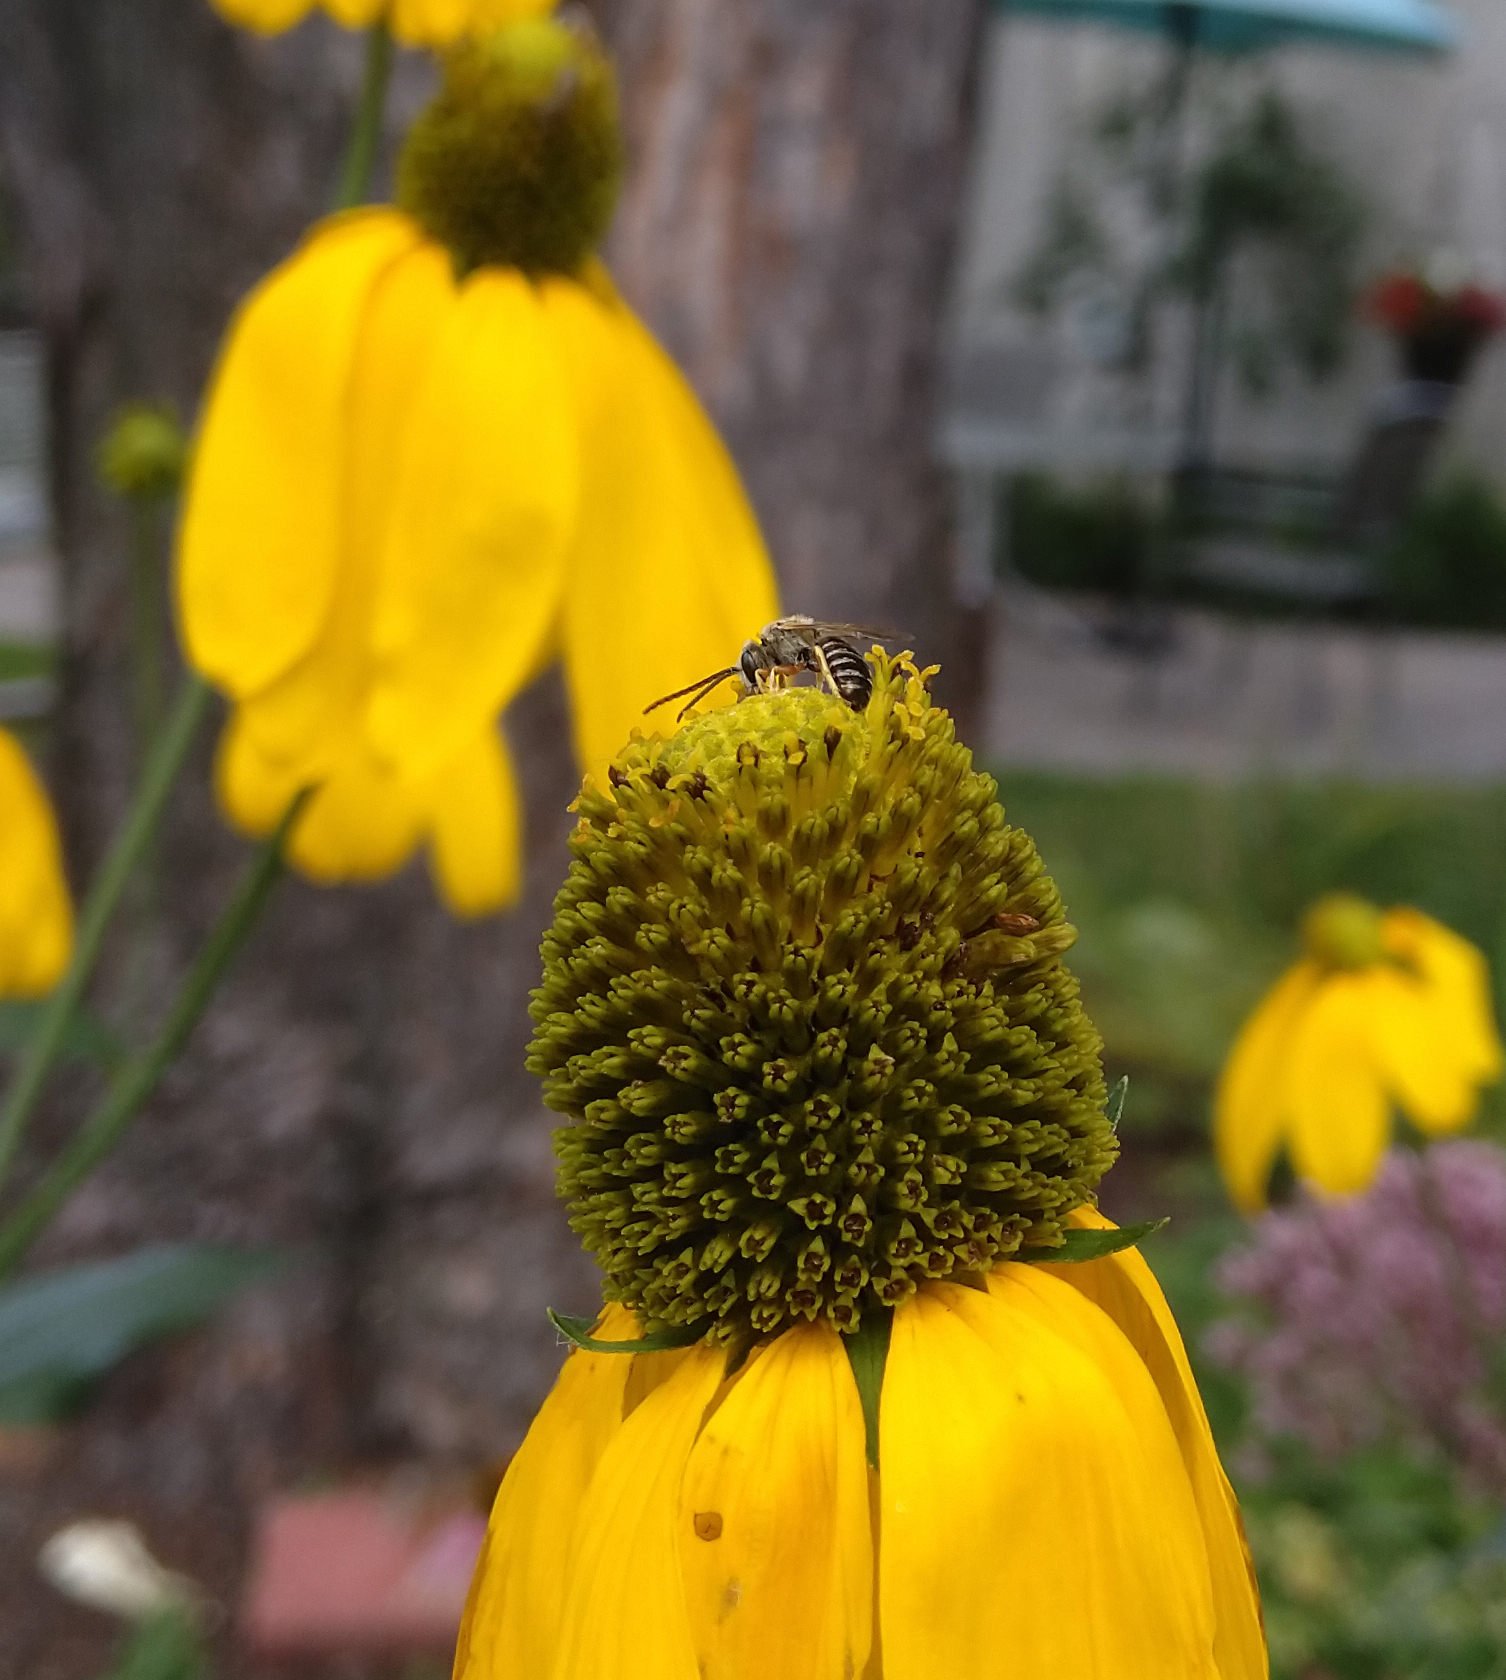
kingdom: Animalia
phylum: Arthropoda
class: Insecta
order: Hymenoptera
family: Halictidae
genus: Halictus
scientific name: Halictus confusus
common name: Southern bronze furrow bee
